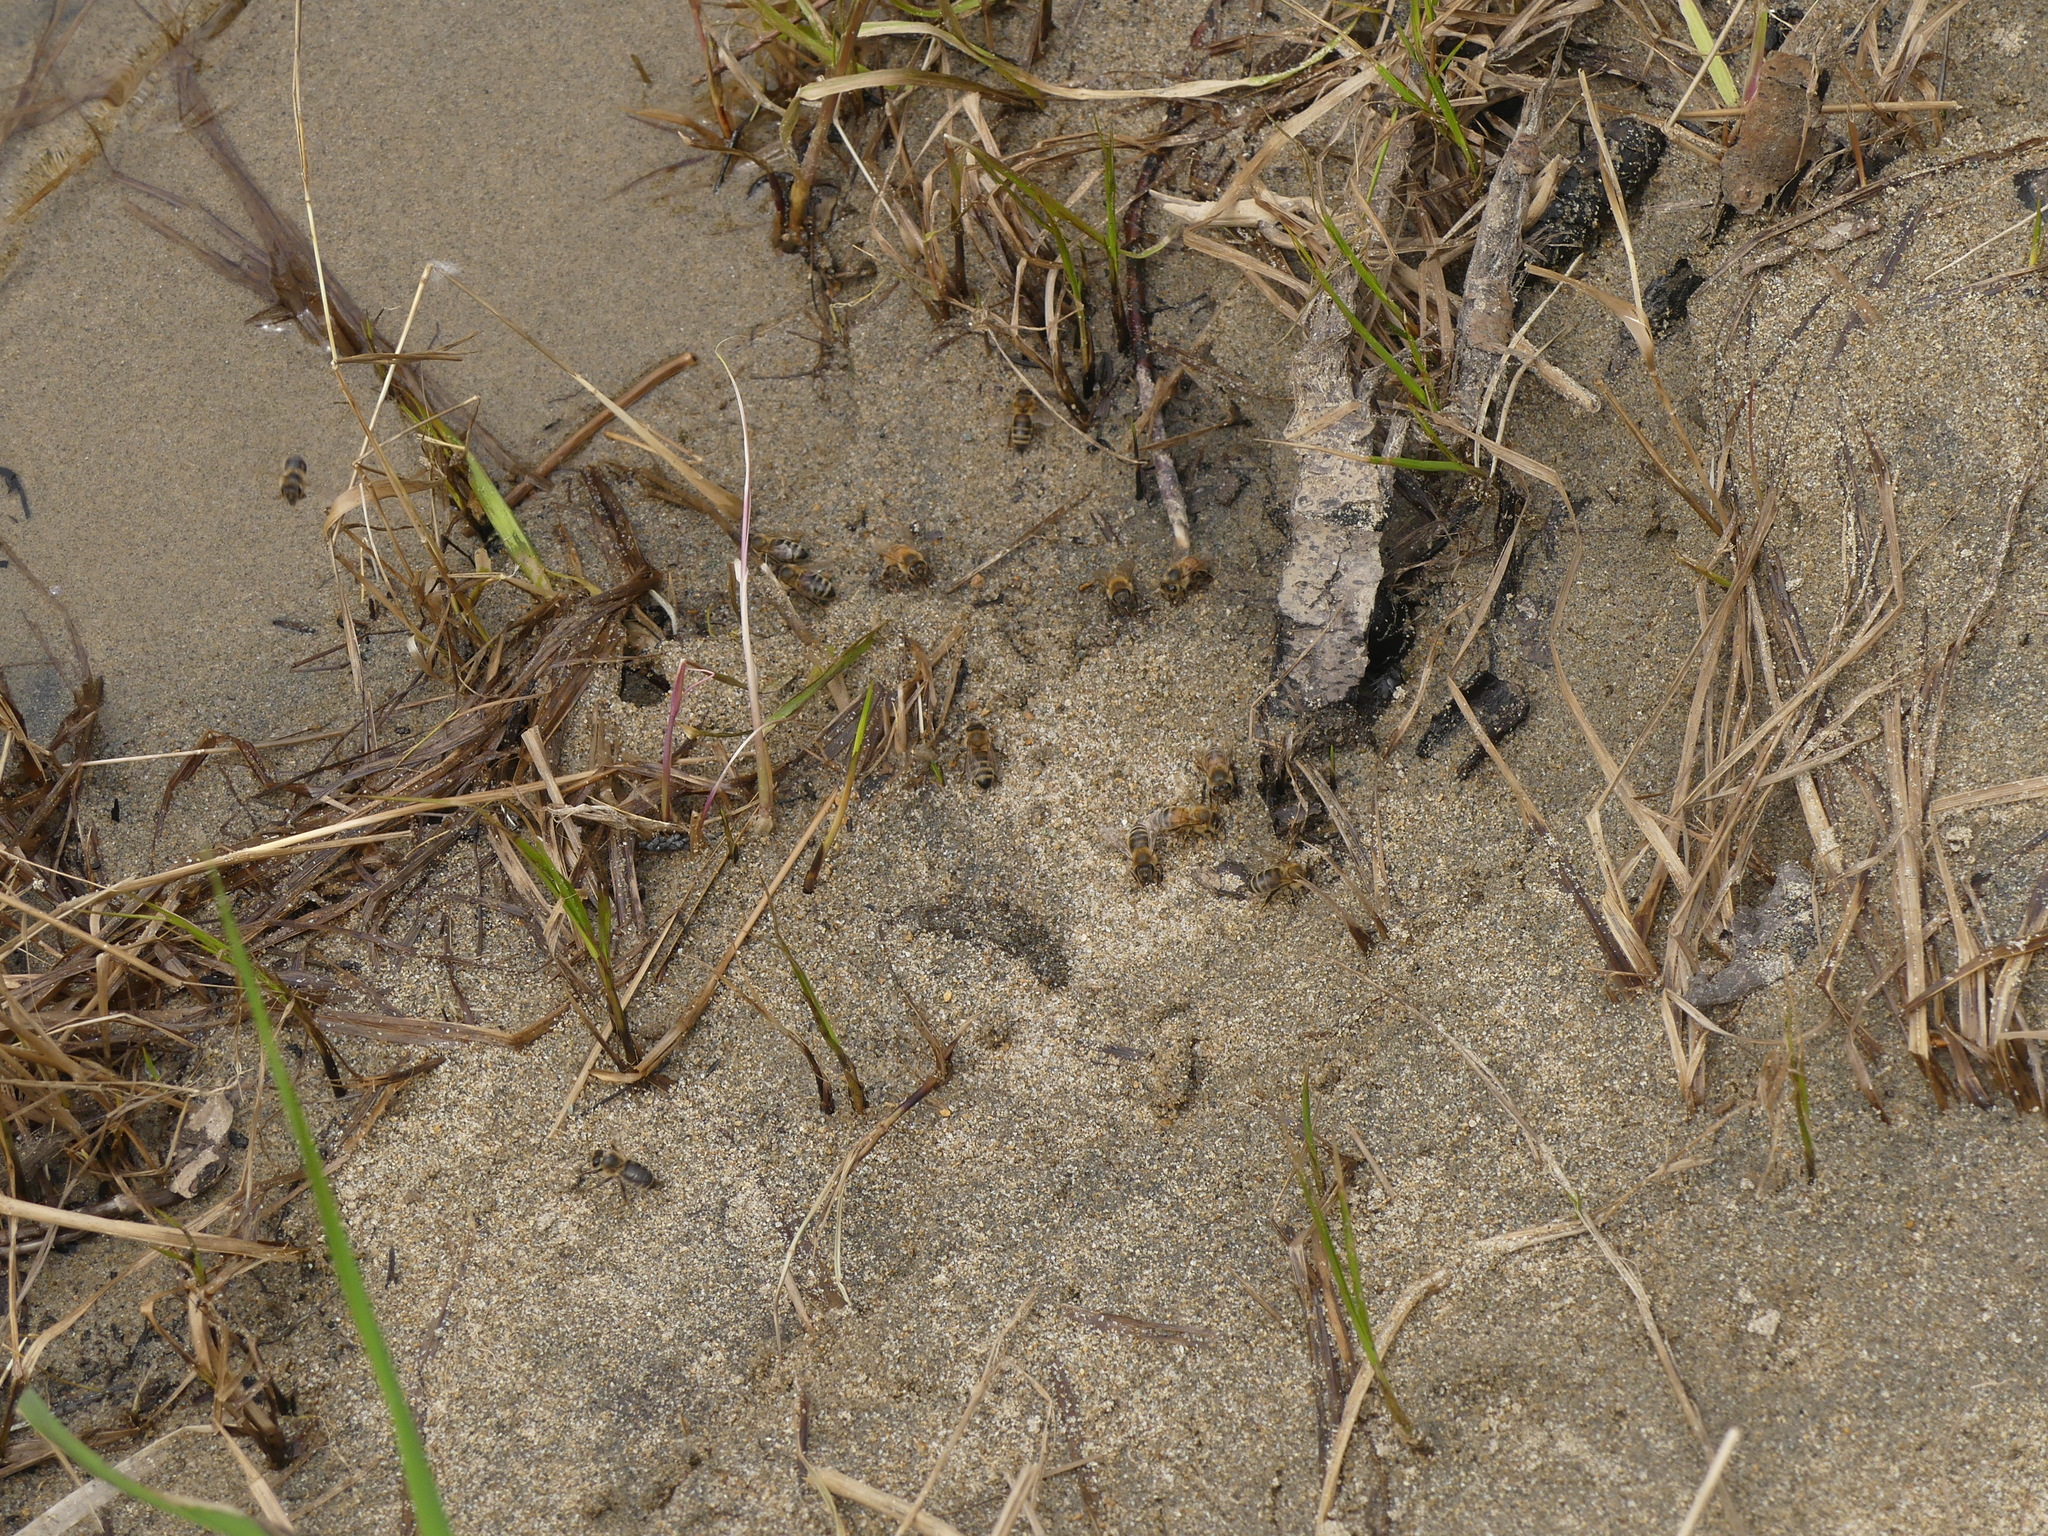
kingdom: Animalia
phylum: Arthropoda
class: Insecta
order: Hymenoptera
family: Apidae
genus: Apis
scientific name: Apis mellifera
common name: Honey bee
